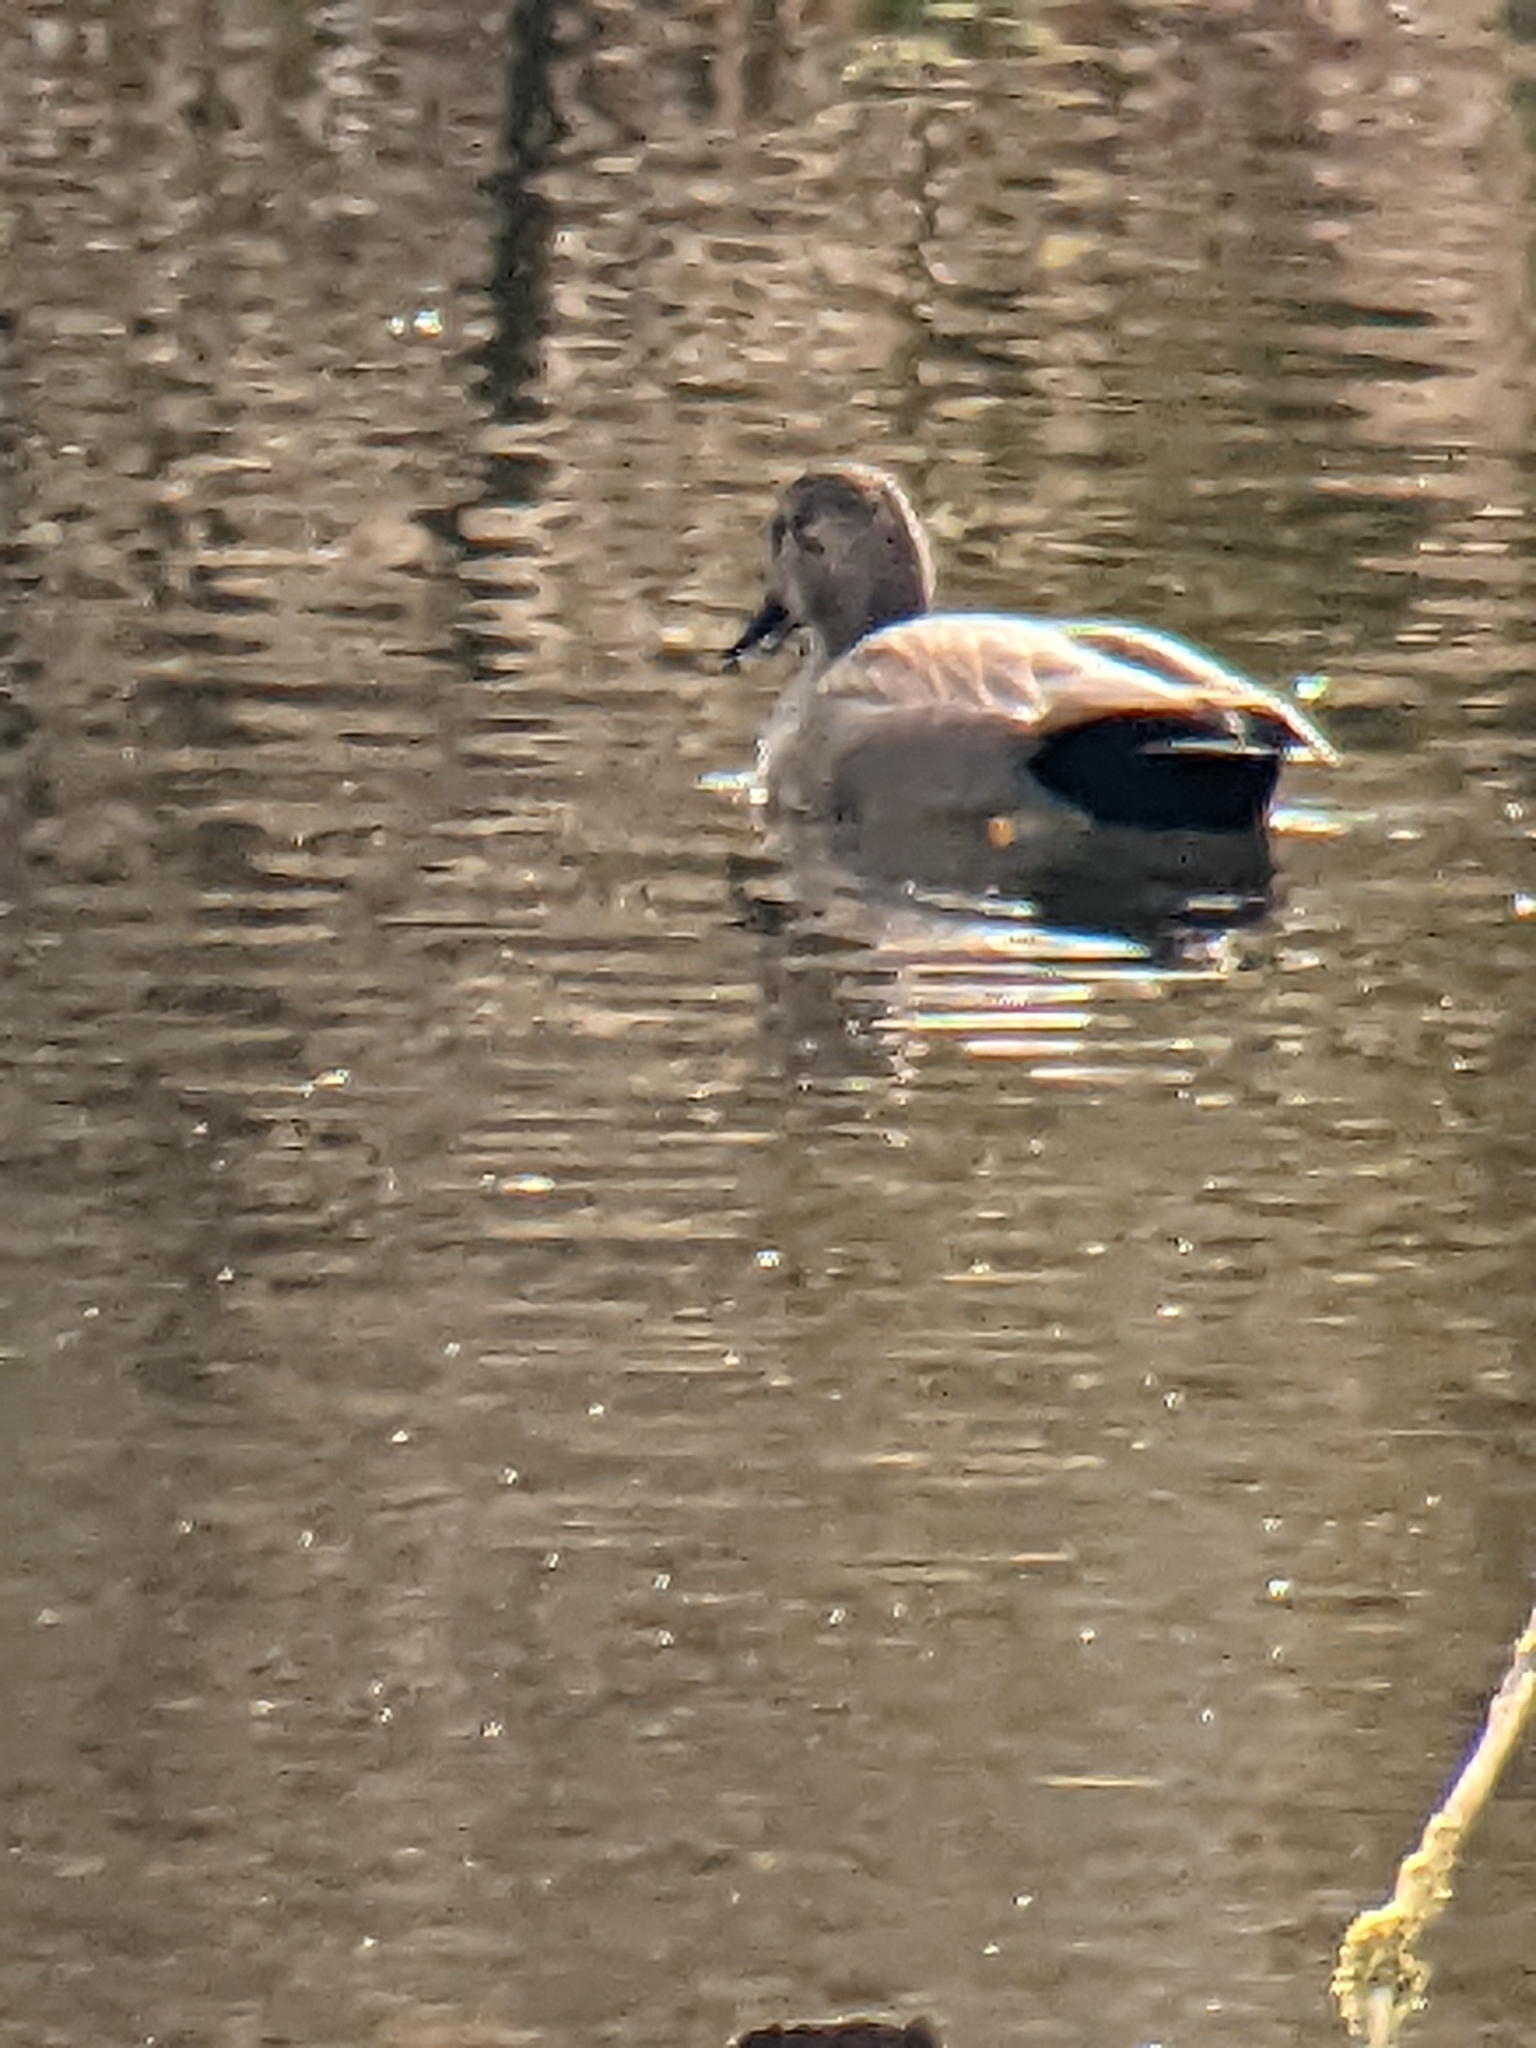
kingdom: Animalia
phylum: Chordata
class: Aves
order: Anseriformes
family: Anatidae
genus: Mareca
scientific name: Mareca strepera
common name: Gadwall
